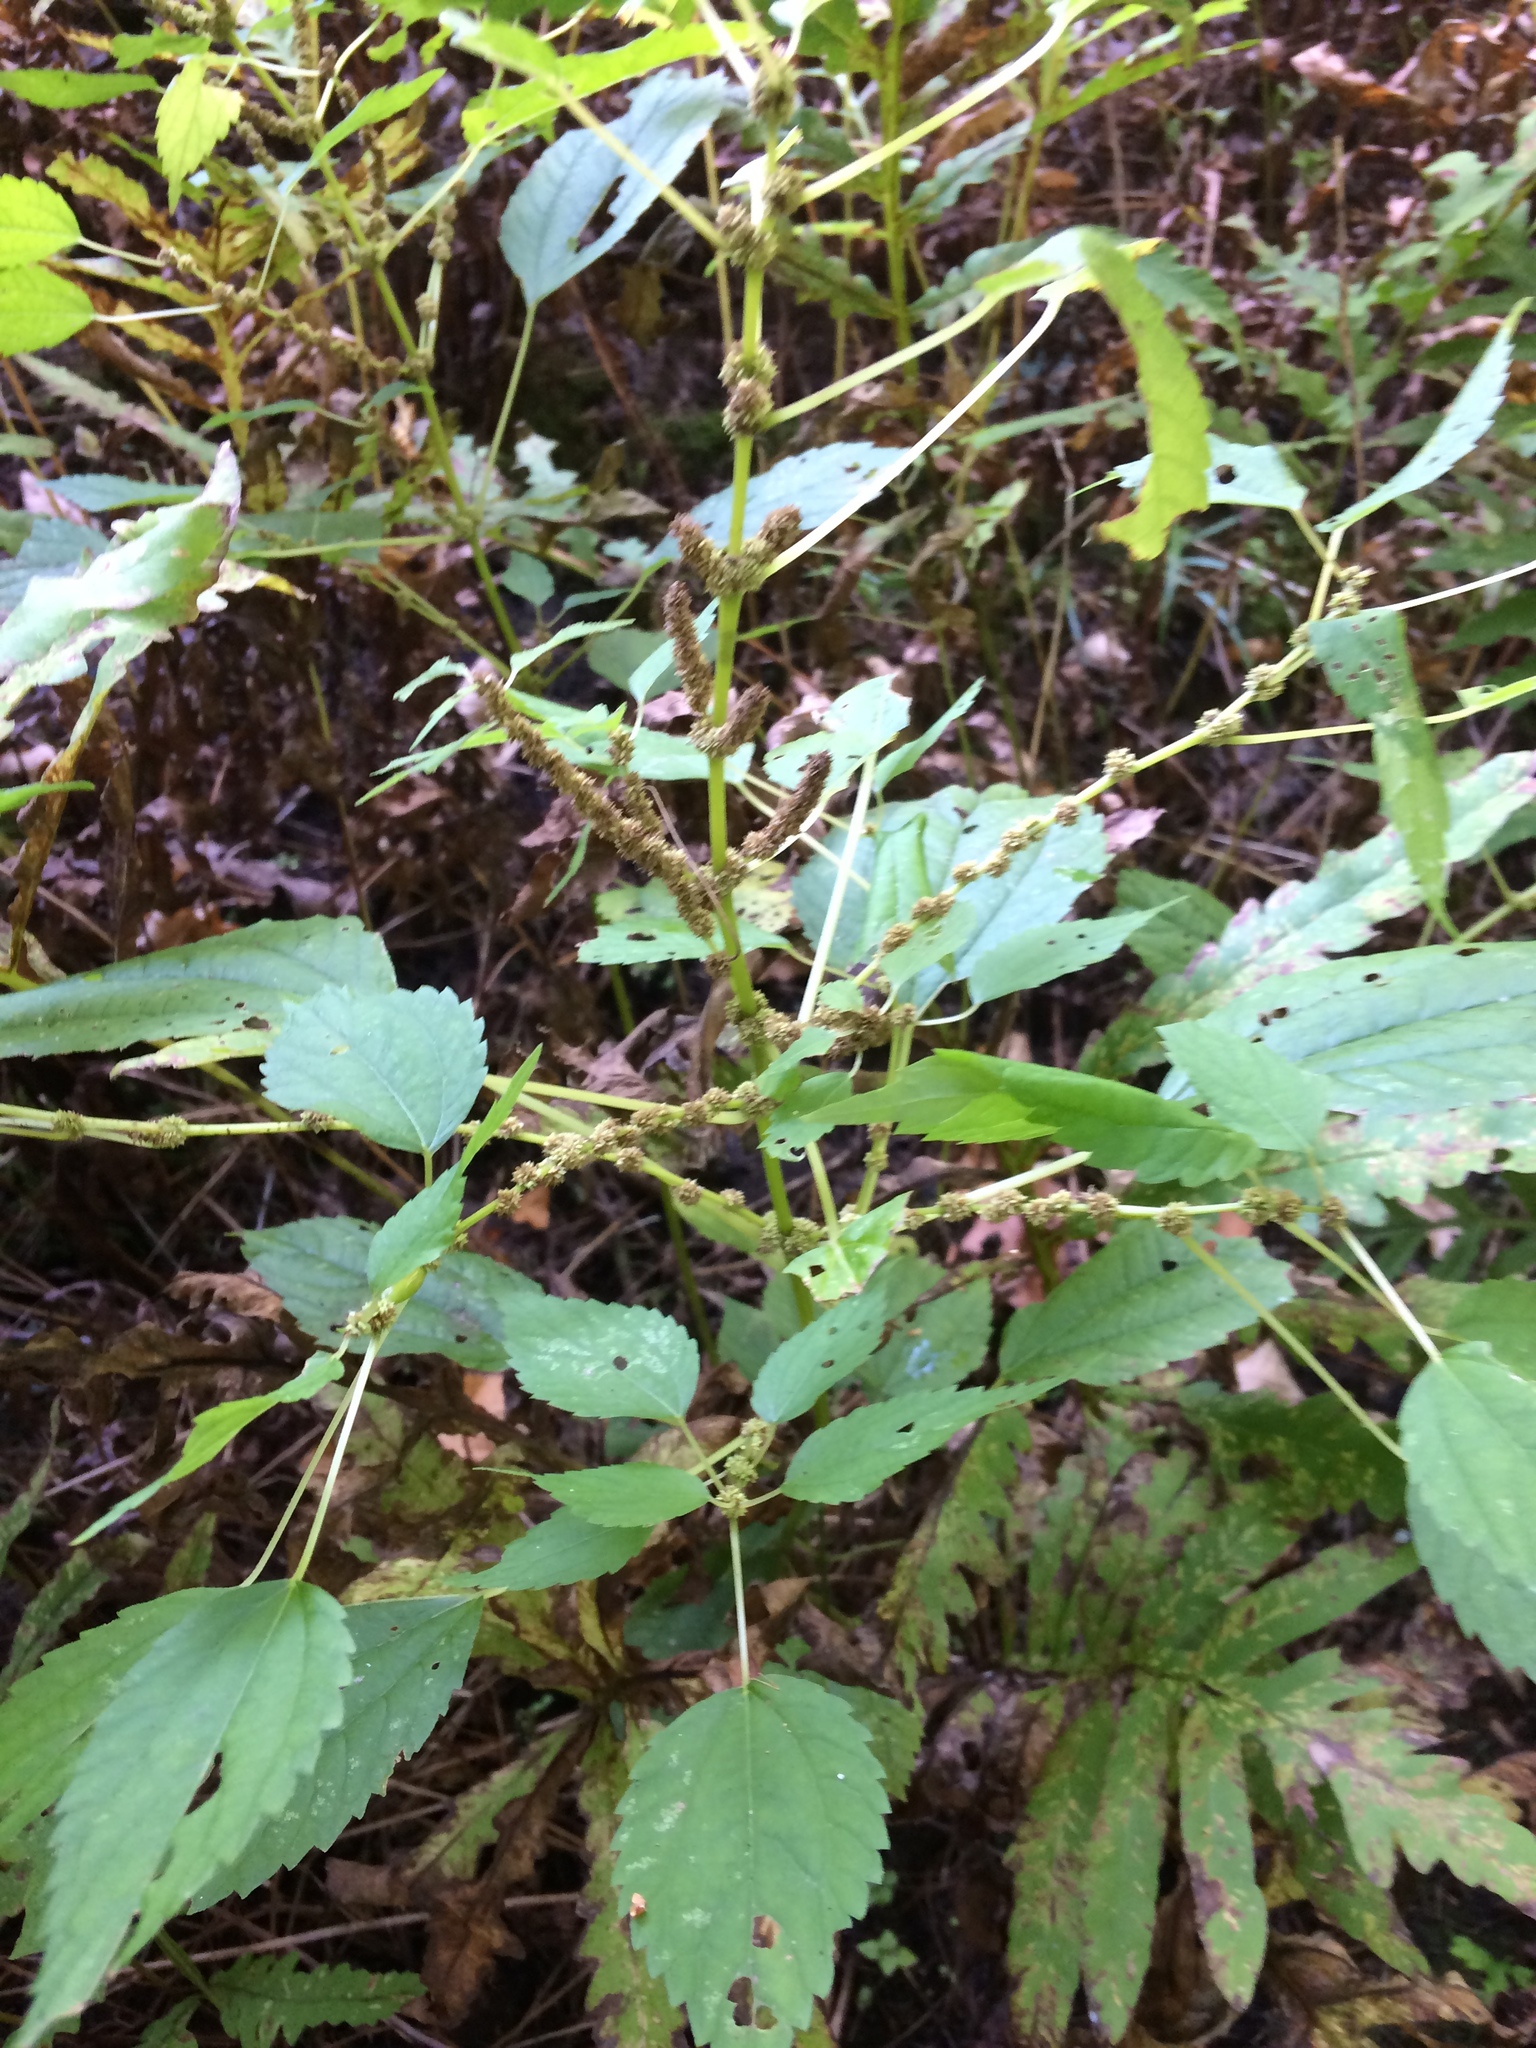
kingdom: Plantae
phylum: Tracheophyta
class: Magnoliopsida
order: Rosales
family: Urticaceae
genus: Boehmeria
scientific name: Boehmeria cylindrica
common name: Bog-hemp
